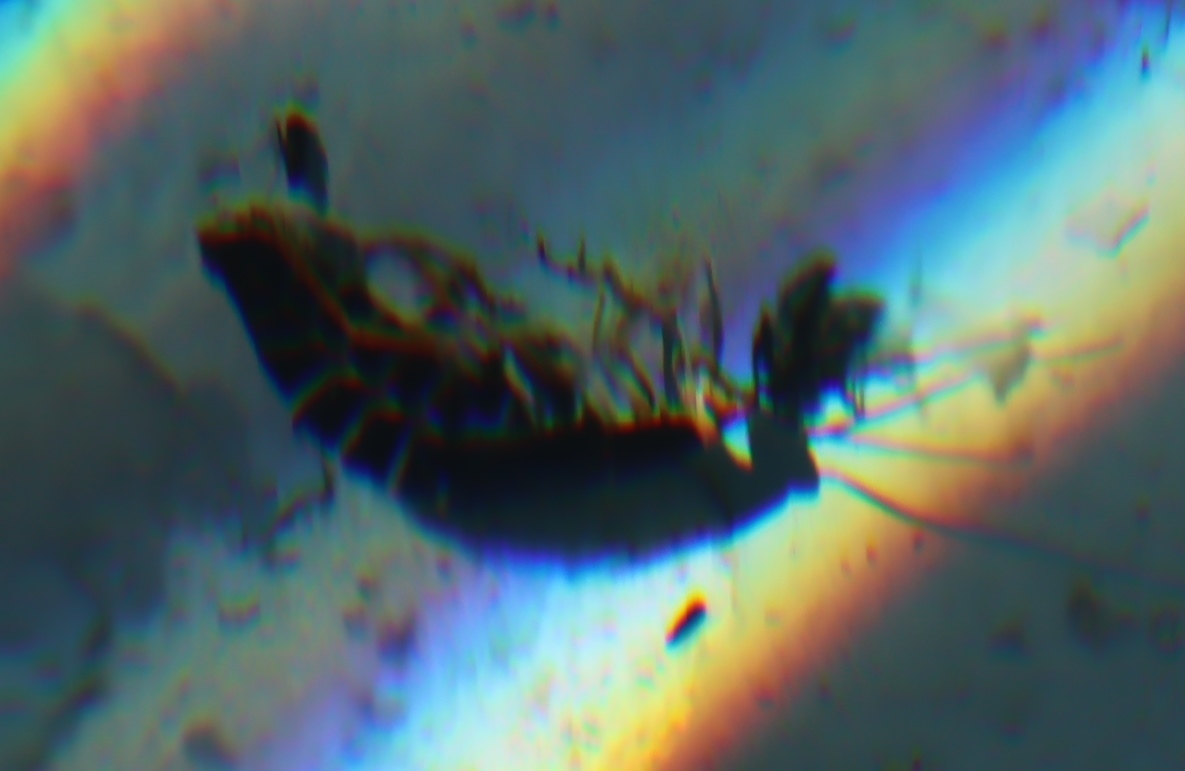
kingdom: Animalia
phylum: Arthropoda
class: Insecta
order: Blattodea
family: Blattidae
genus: Deropeltis
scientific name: Deropeltis erythrocephala
